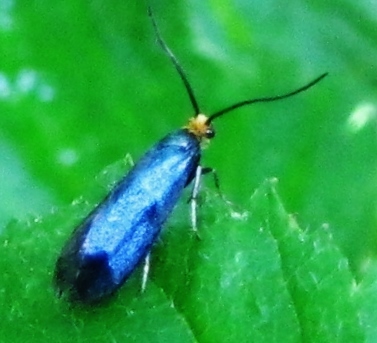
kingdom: Animalia
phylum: Arthropoda
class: Insecta
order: Lepidoptera
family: Incurvariidae
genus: Paraclemensia
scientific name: Paraclemensia acerifoliella
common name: Maple leafcutter
